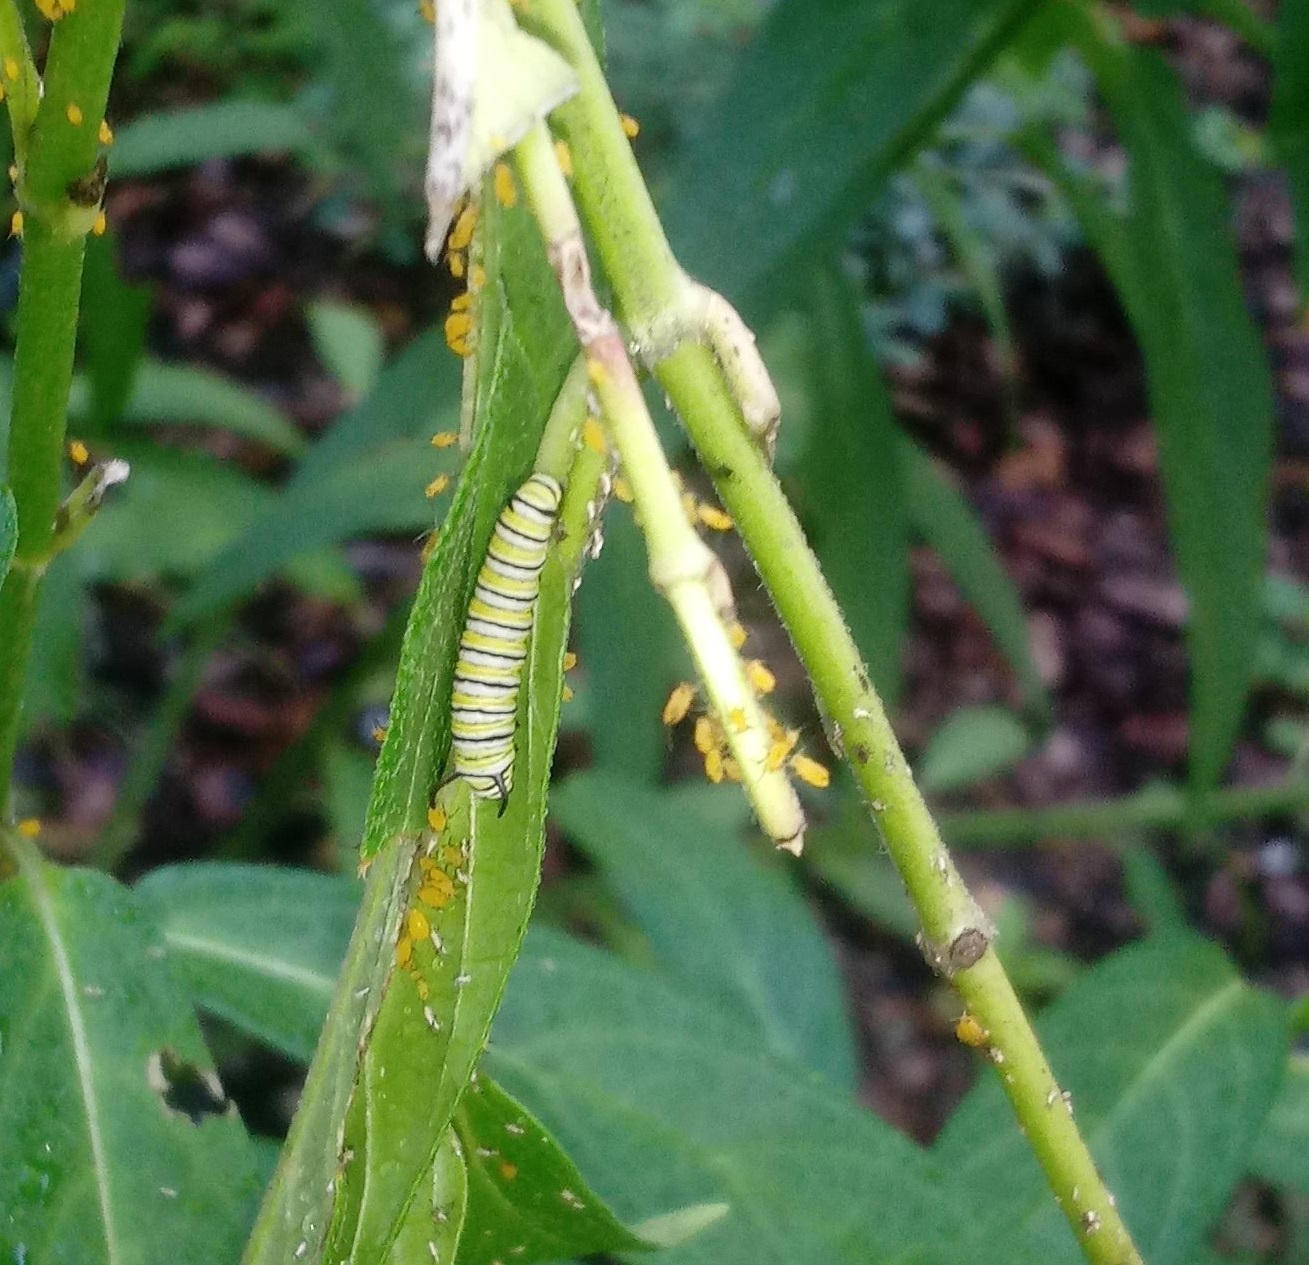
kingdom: Animalia
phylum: Arthropoda
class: Insecta
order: Lepidoptera
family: Nymphalidae
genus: Danaus
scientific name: Danaus plexippus
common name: Monarch
